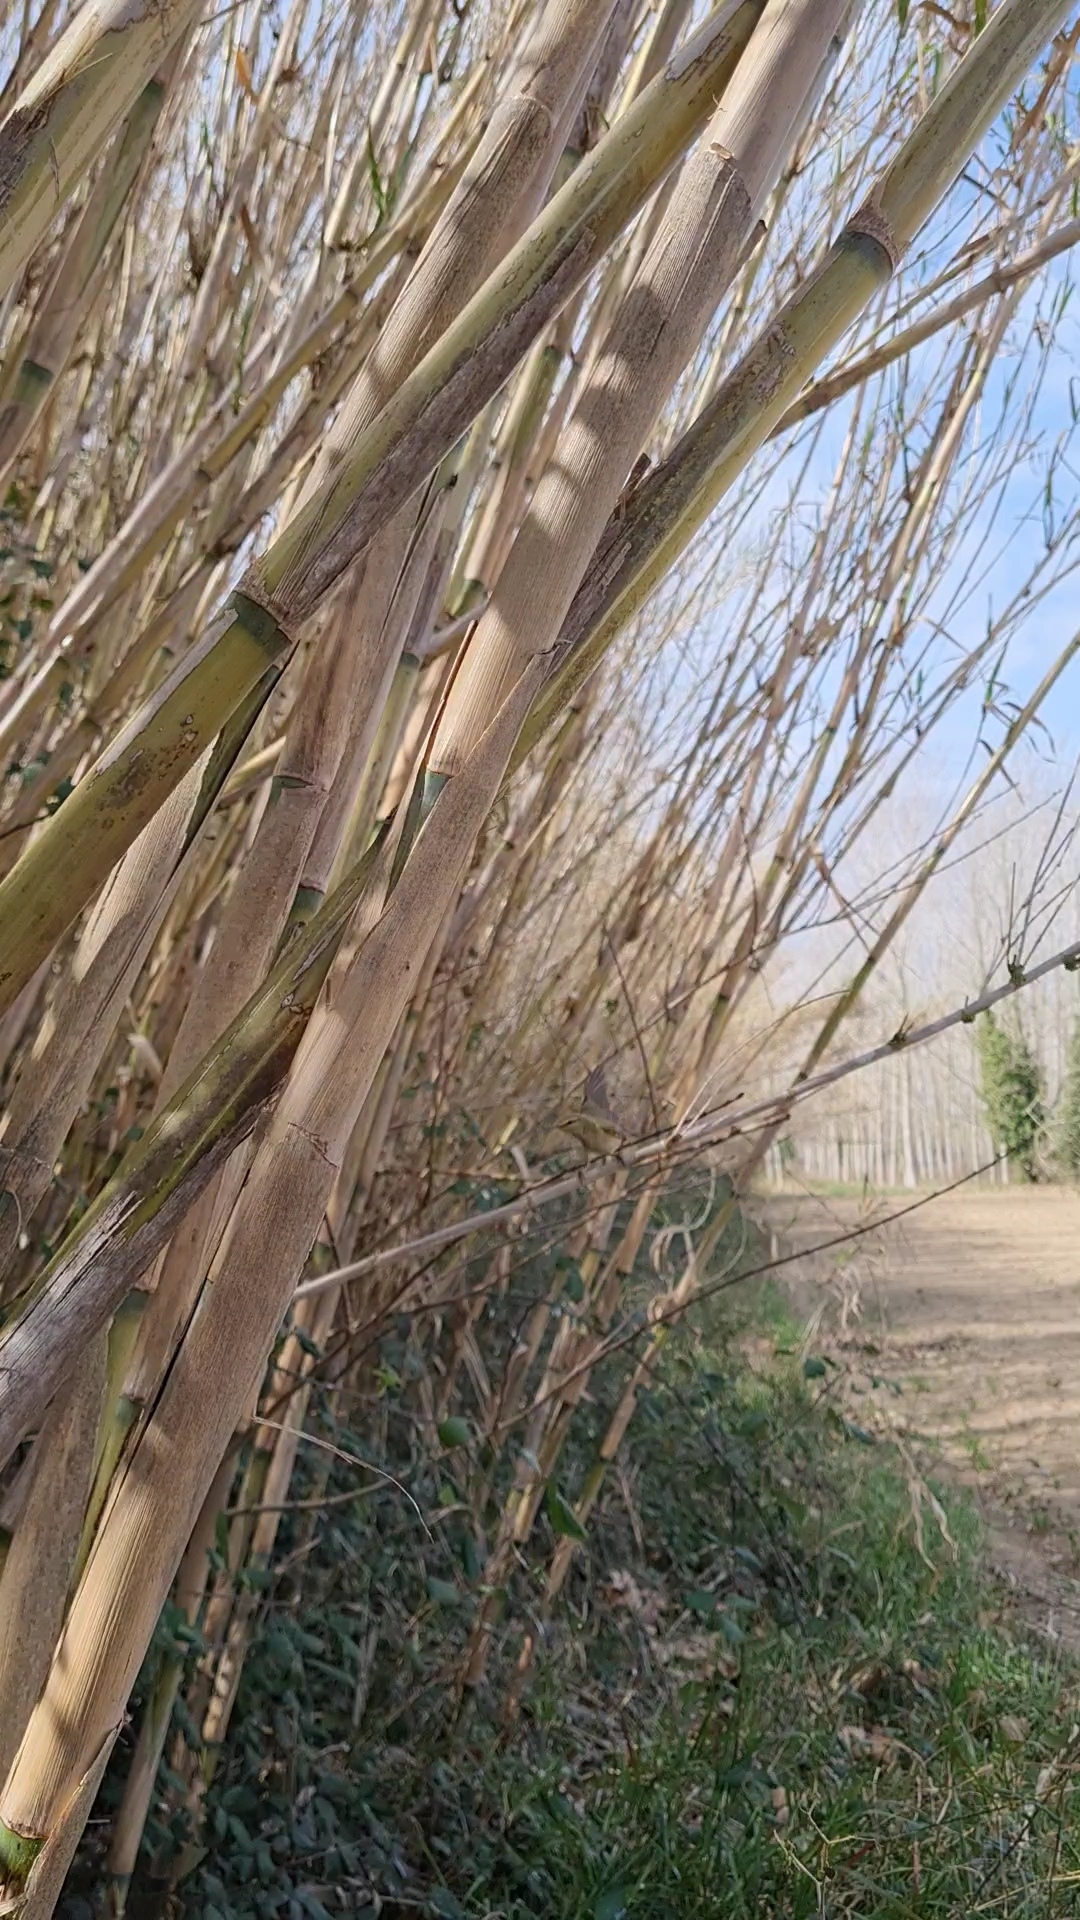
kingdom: Animalia
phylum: Chordata
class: Aves
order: Passeriformes
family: Phylloscopidae
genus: Phylloscopus
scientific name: Phylloscopus collybita
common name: Common chiffchaff
